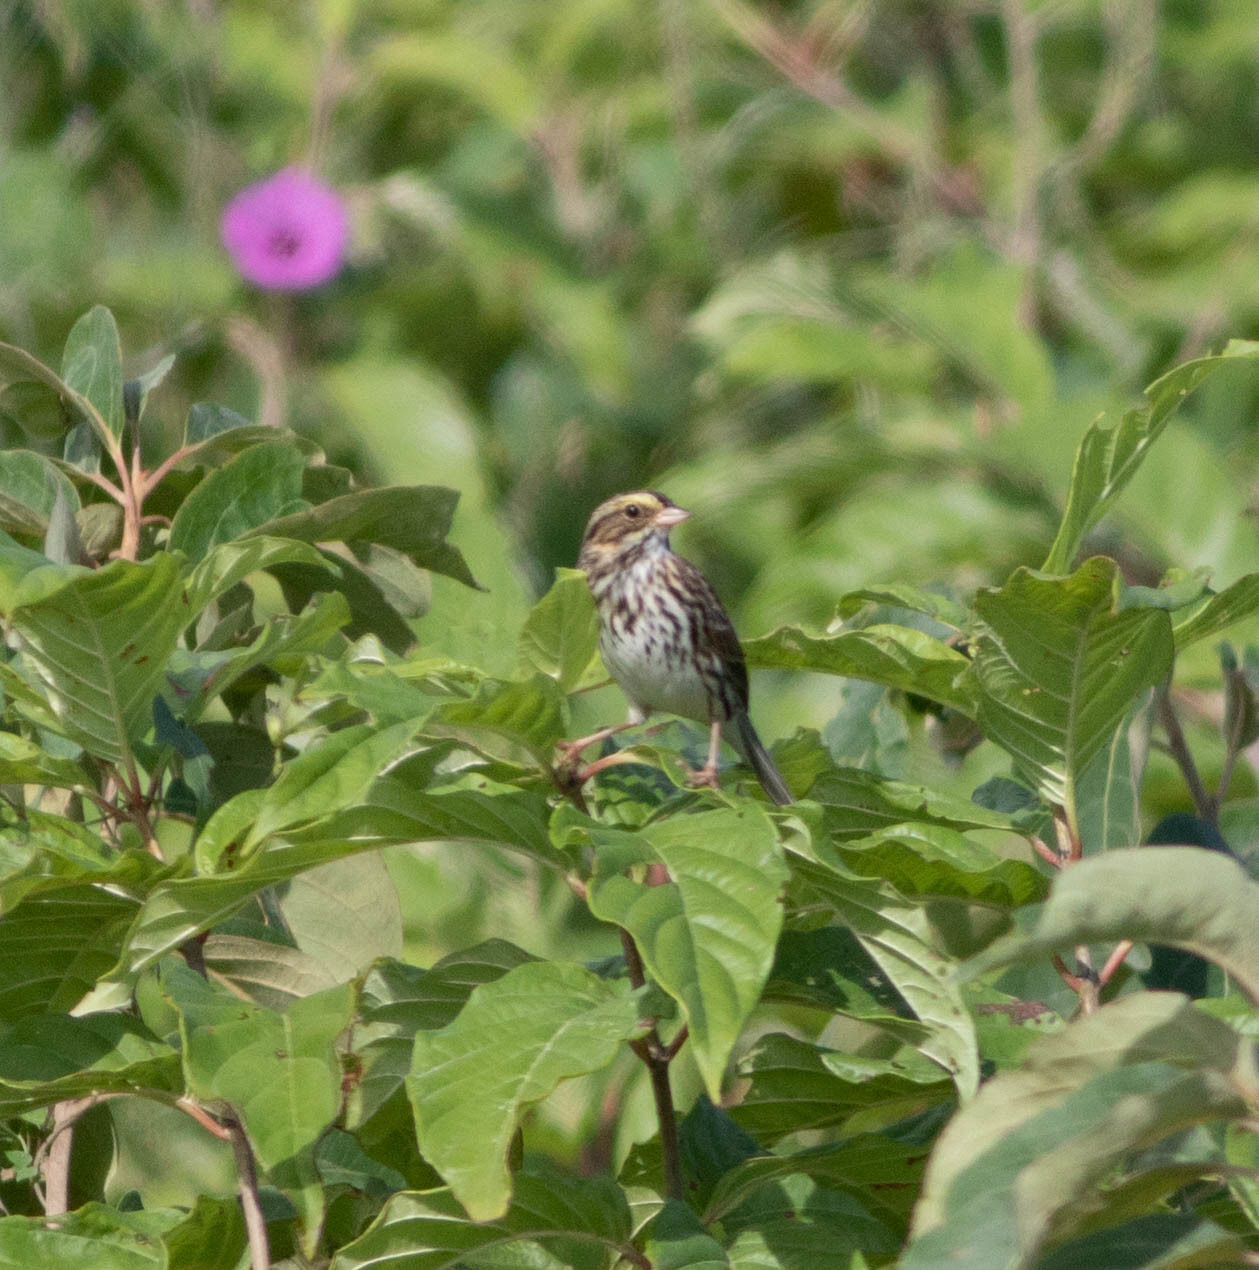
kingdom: Animalia
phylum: Chordata
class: Aves
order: Passeriformes
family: Passerellidae
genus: Passerculus
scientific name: Passerculus sandwichensis
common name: Savannah sparrow
